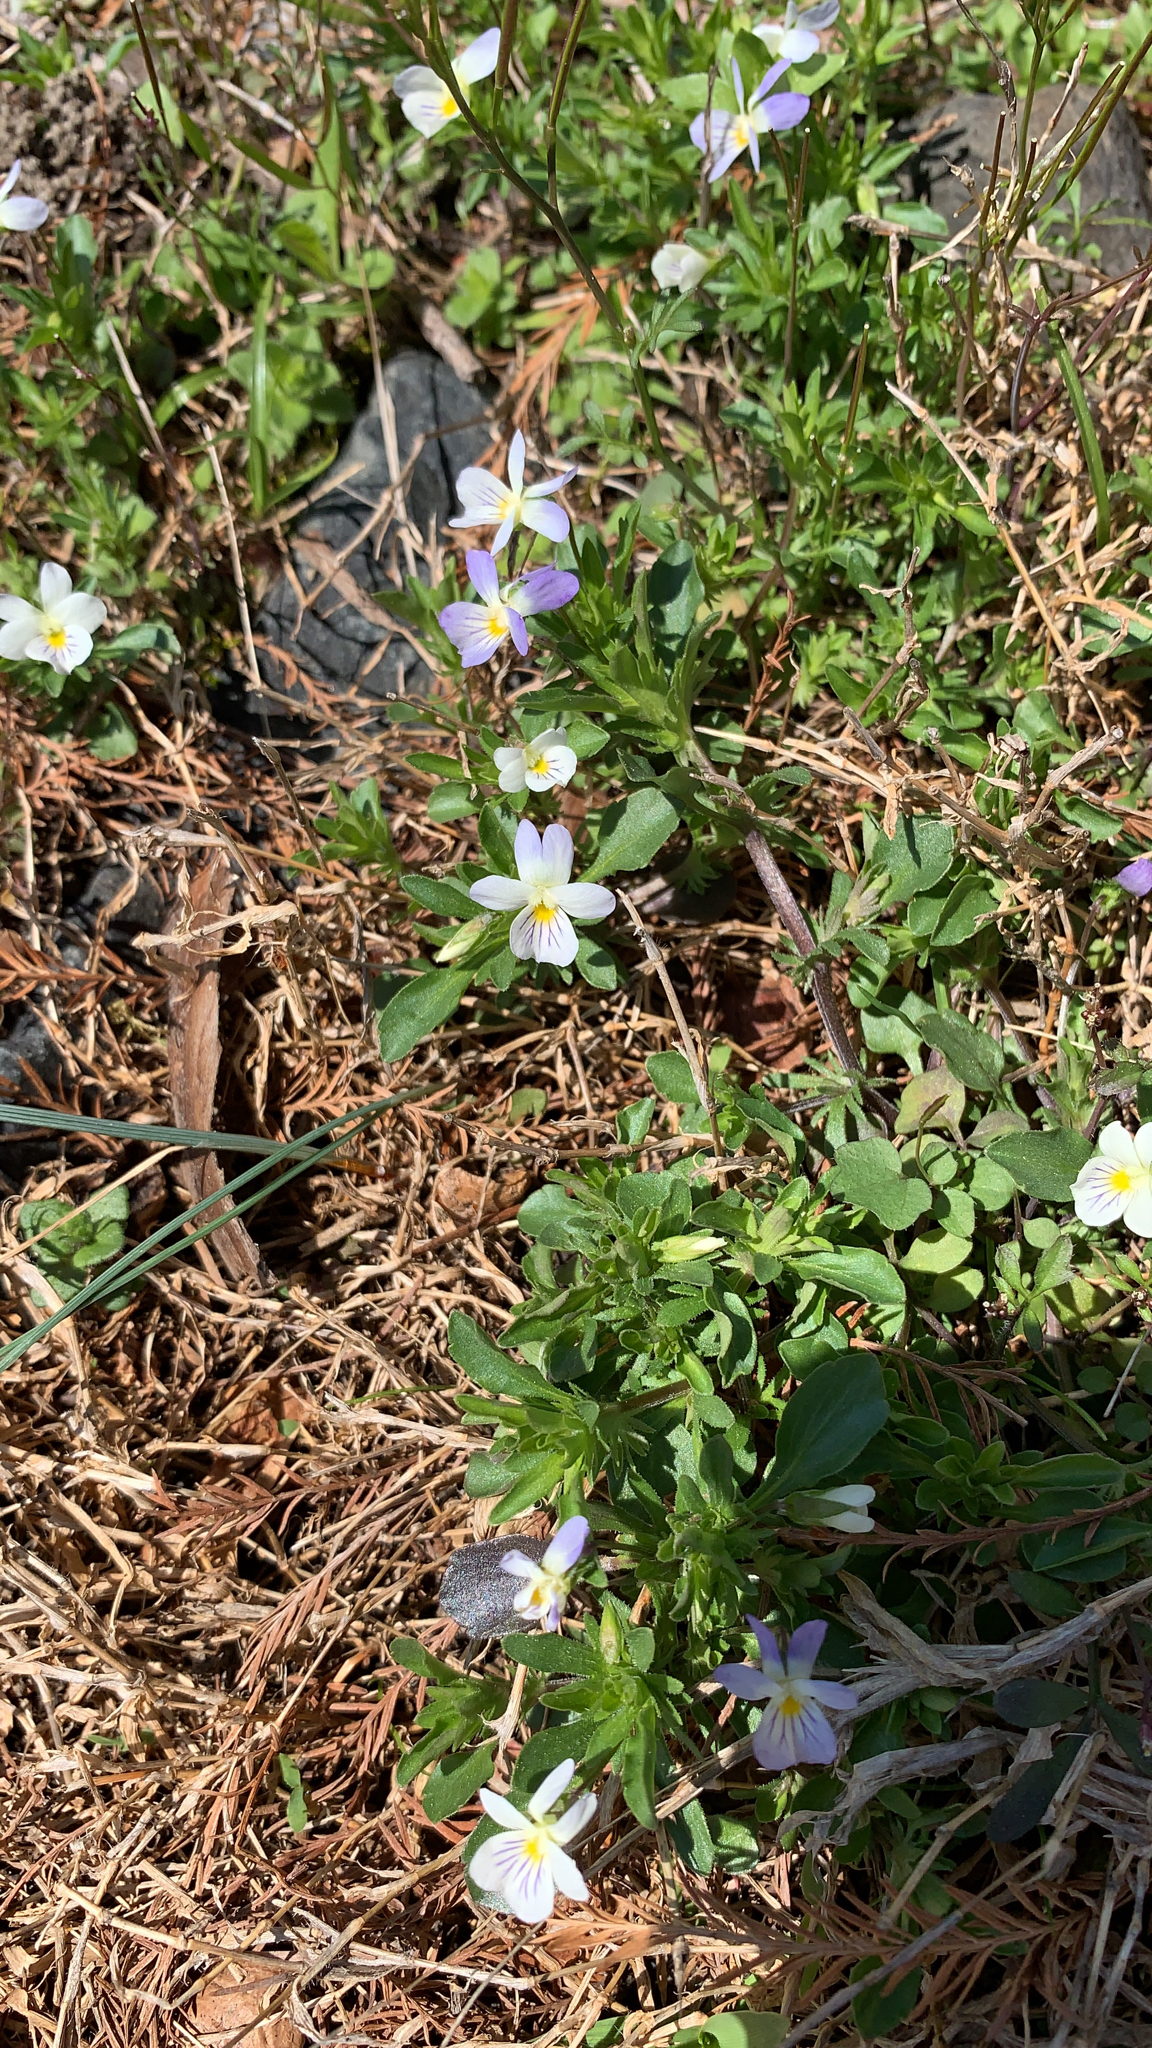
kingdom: Plantae
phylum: Tracheophyta
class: Magnoliopsida
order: Malpighiales
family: Violaceae
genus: Viola
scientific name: Viola rafinesquei
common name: American field pansy
